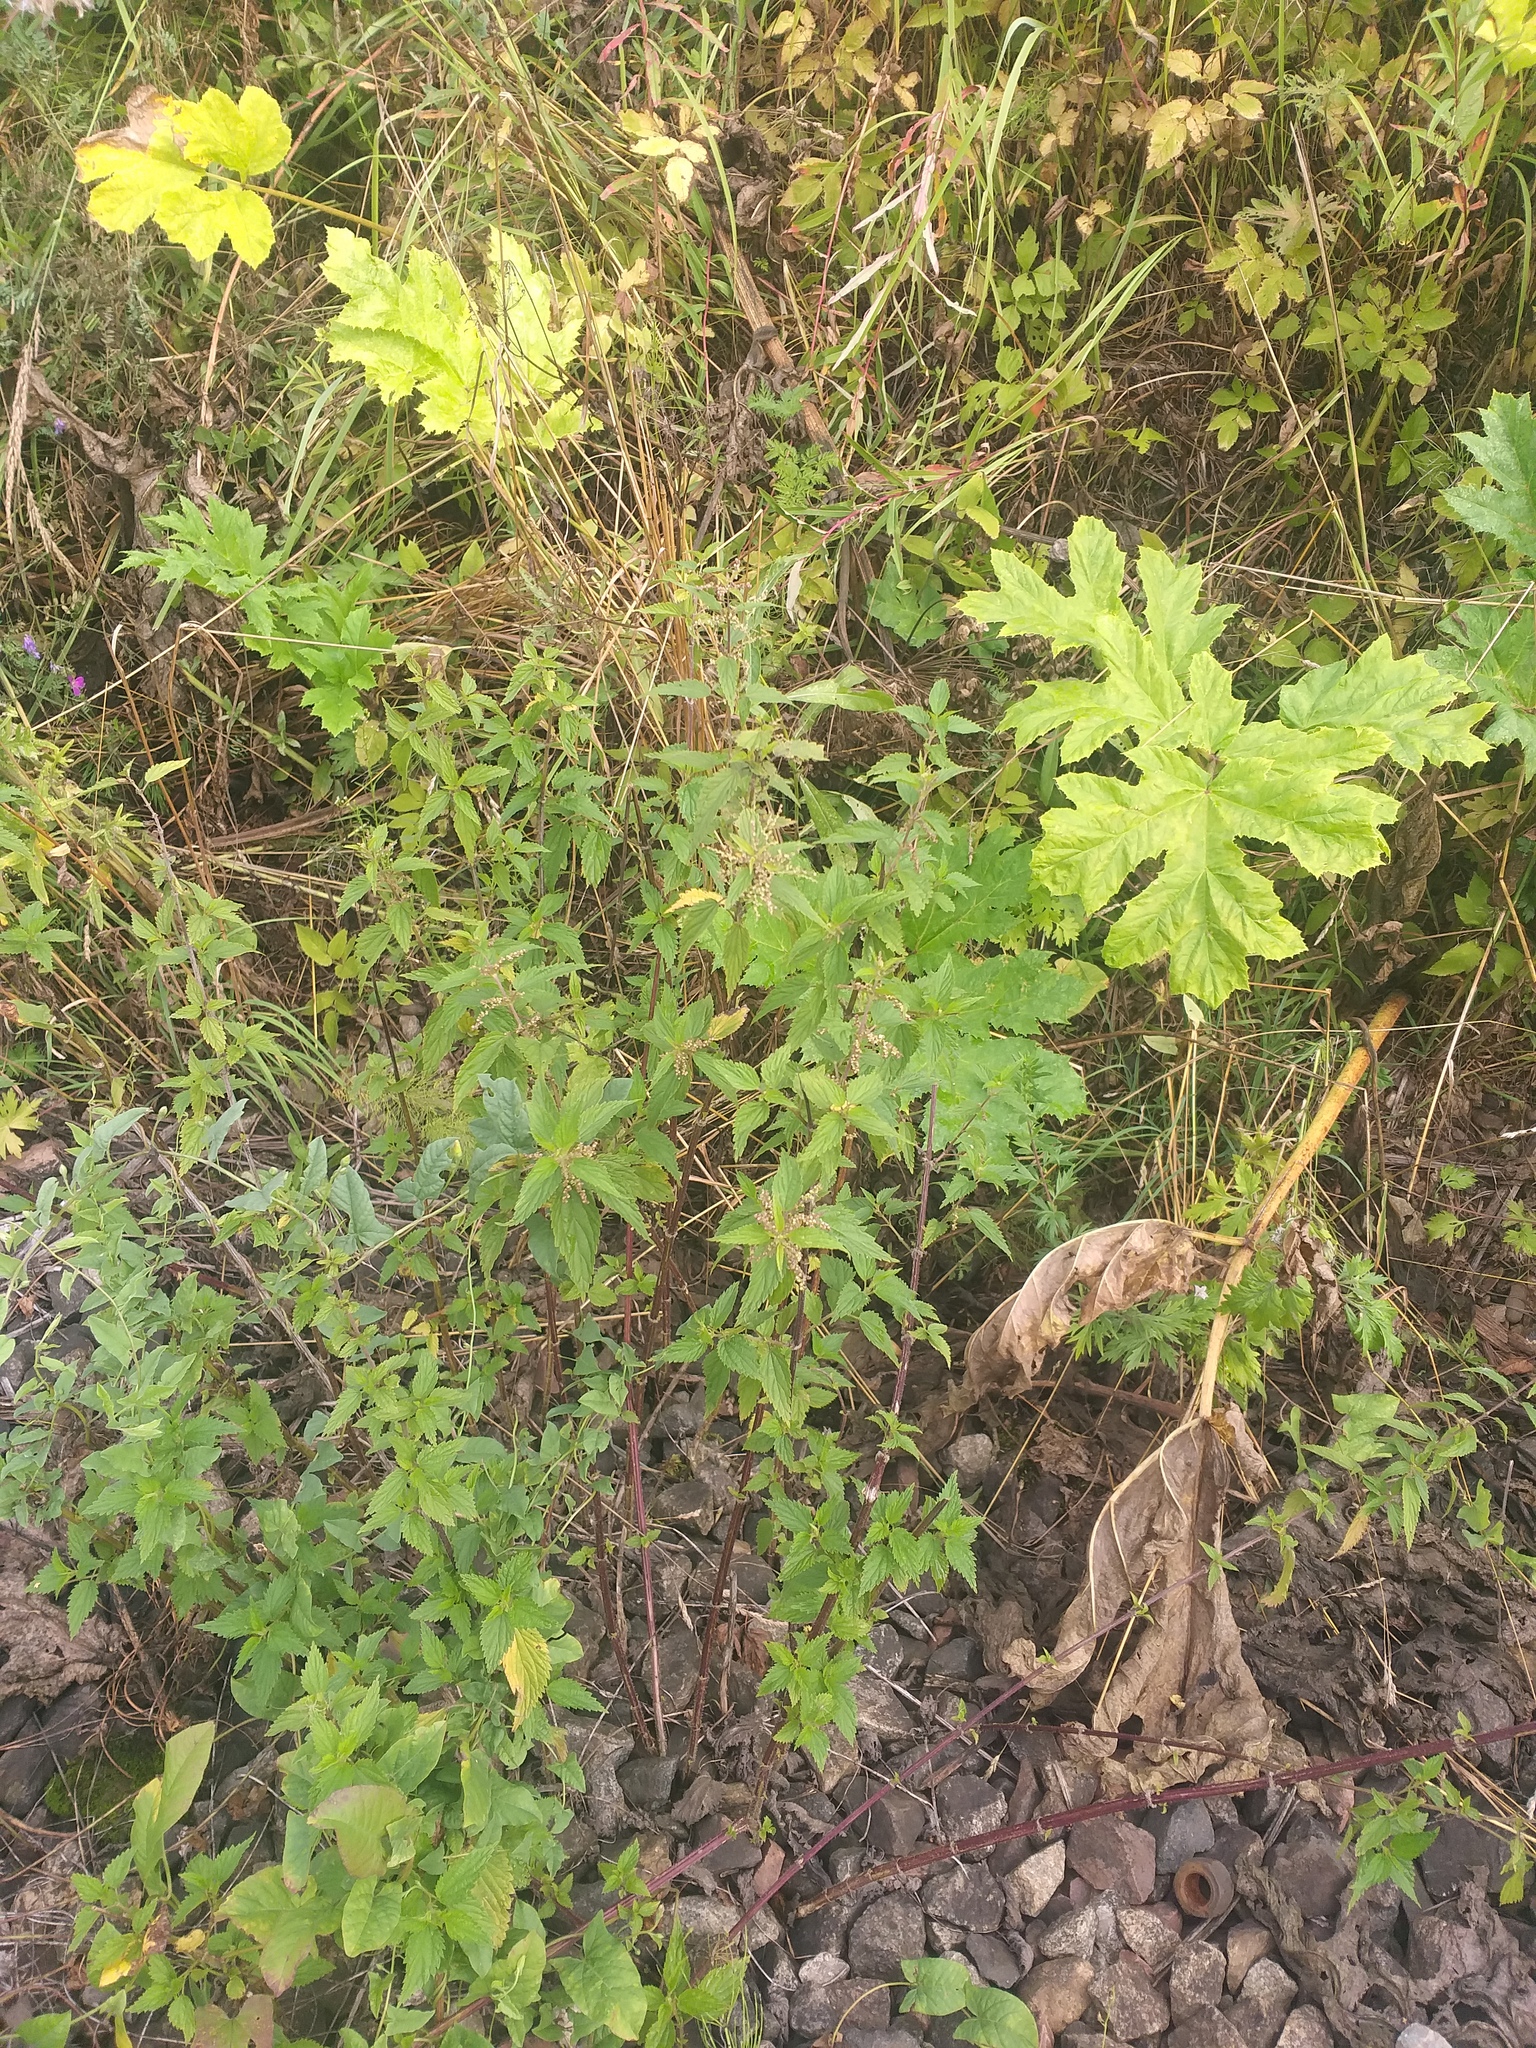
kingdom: Plantae
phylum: Tracheophyta
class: Magnoliopsida
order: Rosales
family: Urticaceae
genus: Urtica
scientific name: Urtica dioica
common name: Common nettle
